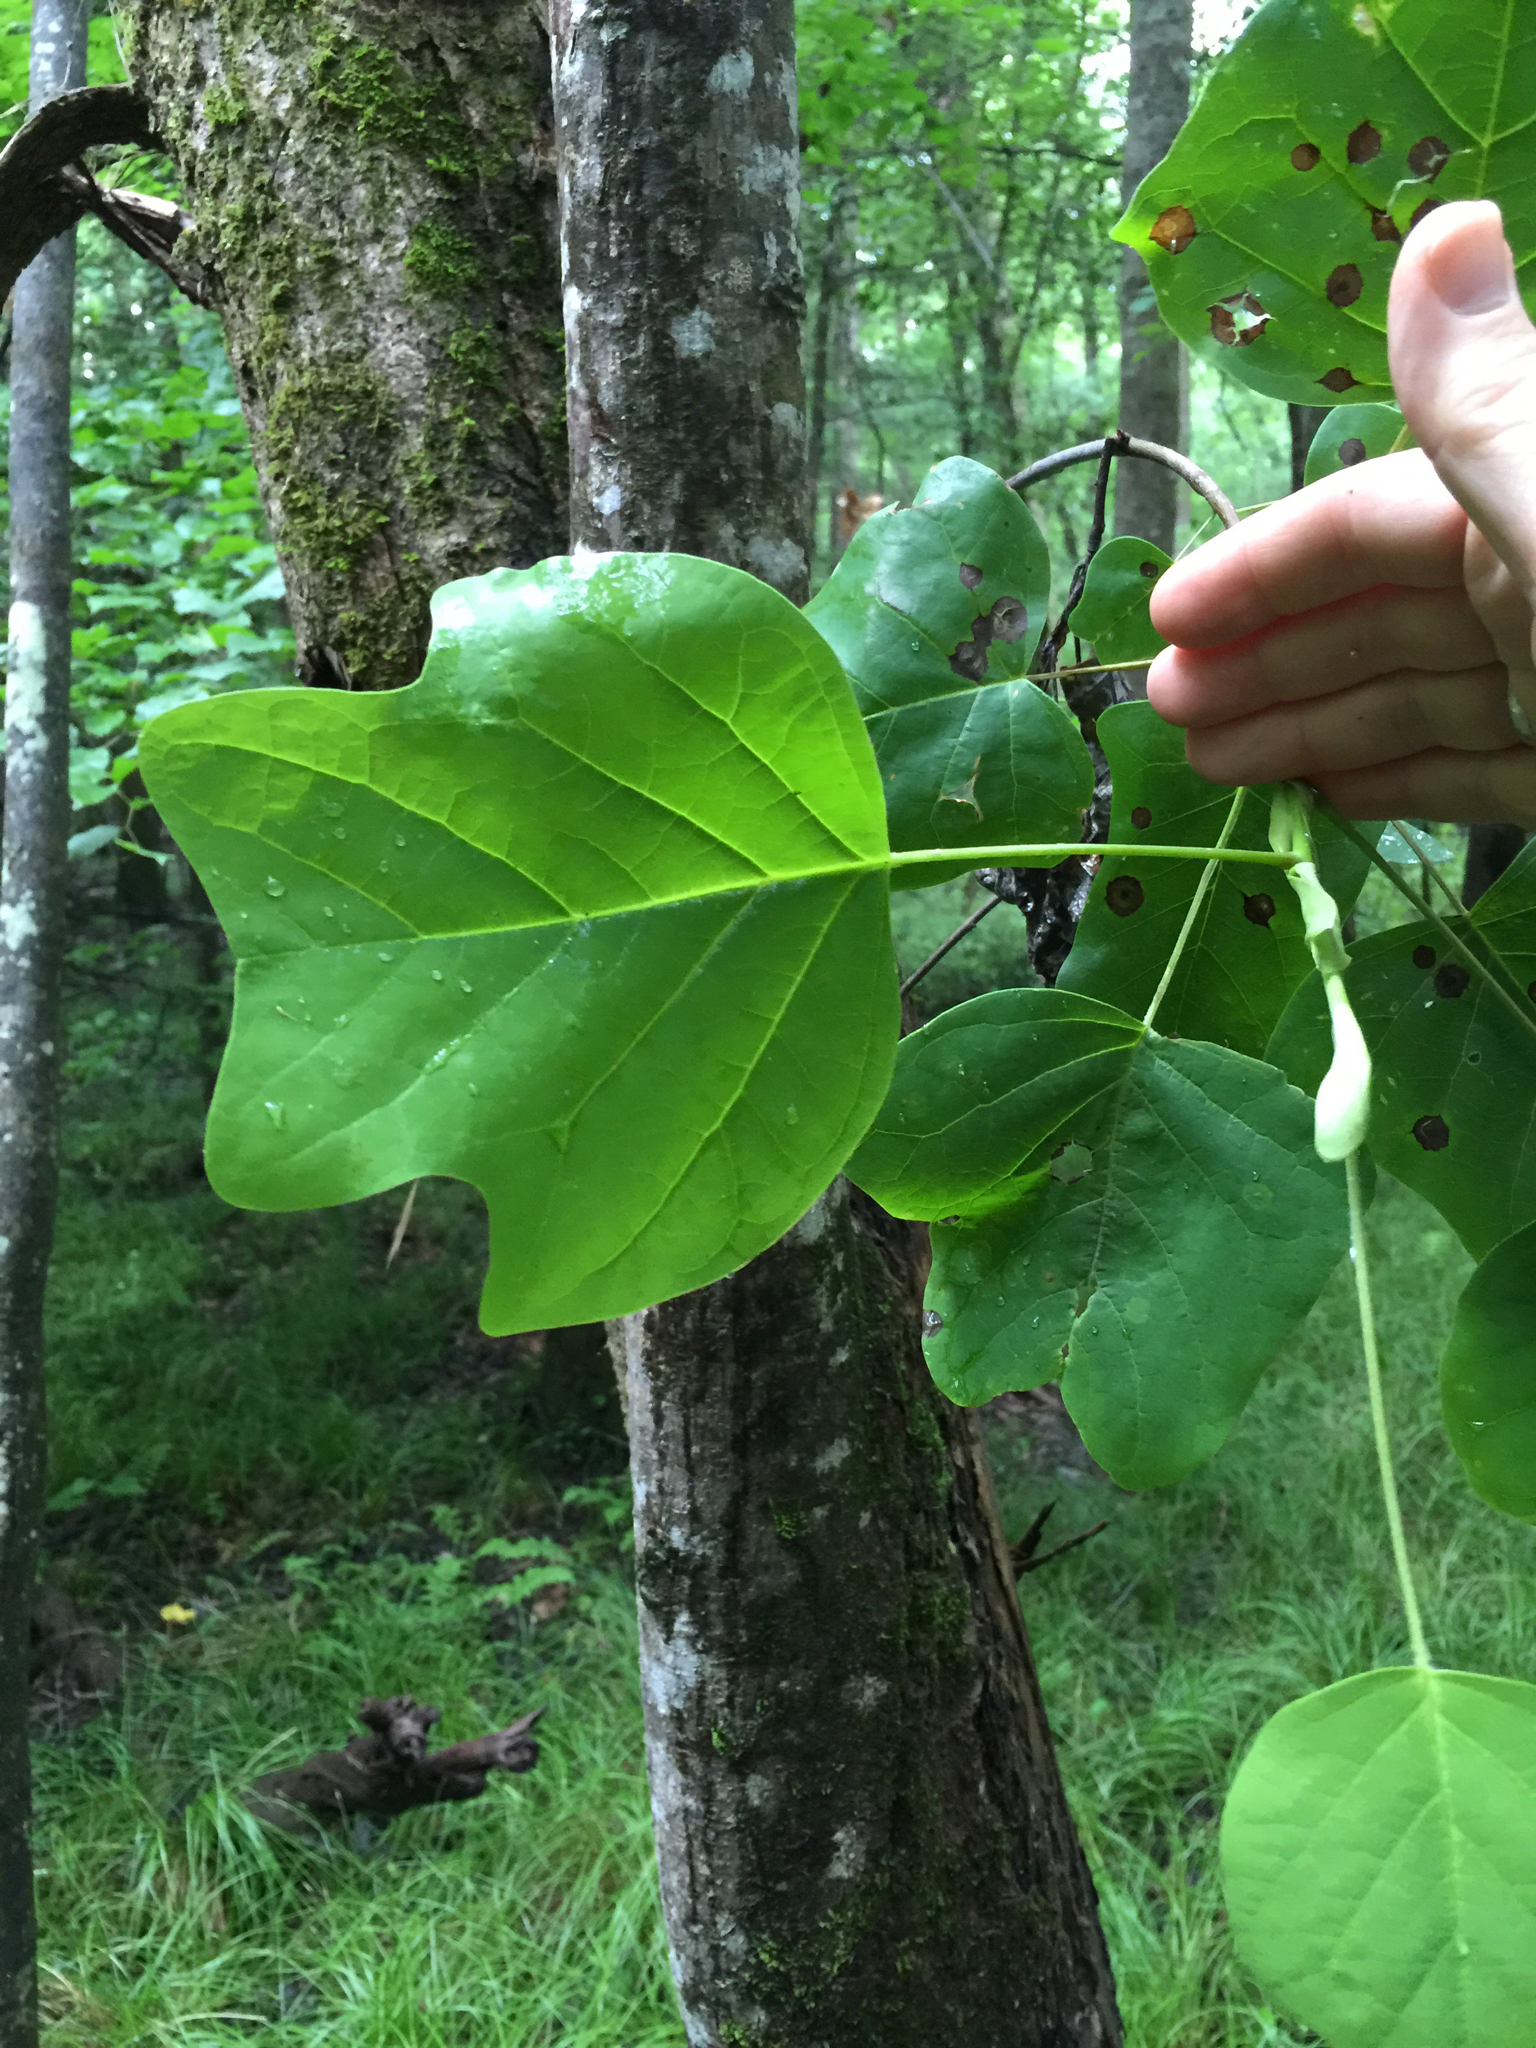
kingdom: Plantae
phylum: Tracheophyta
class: Magnoliopsida
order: Magnoliales
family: Magnoliaceae
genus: Liriodendron
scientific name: Liriodendron tulipifera
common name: Tulip tree
